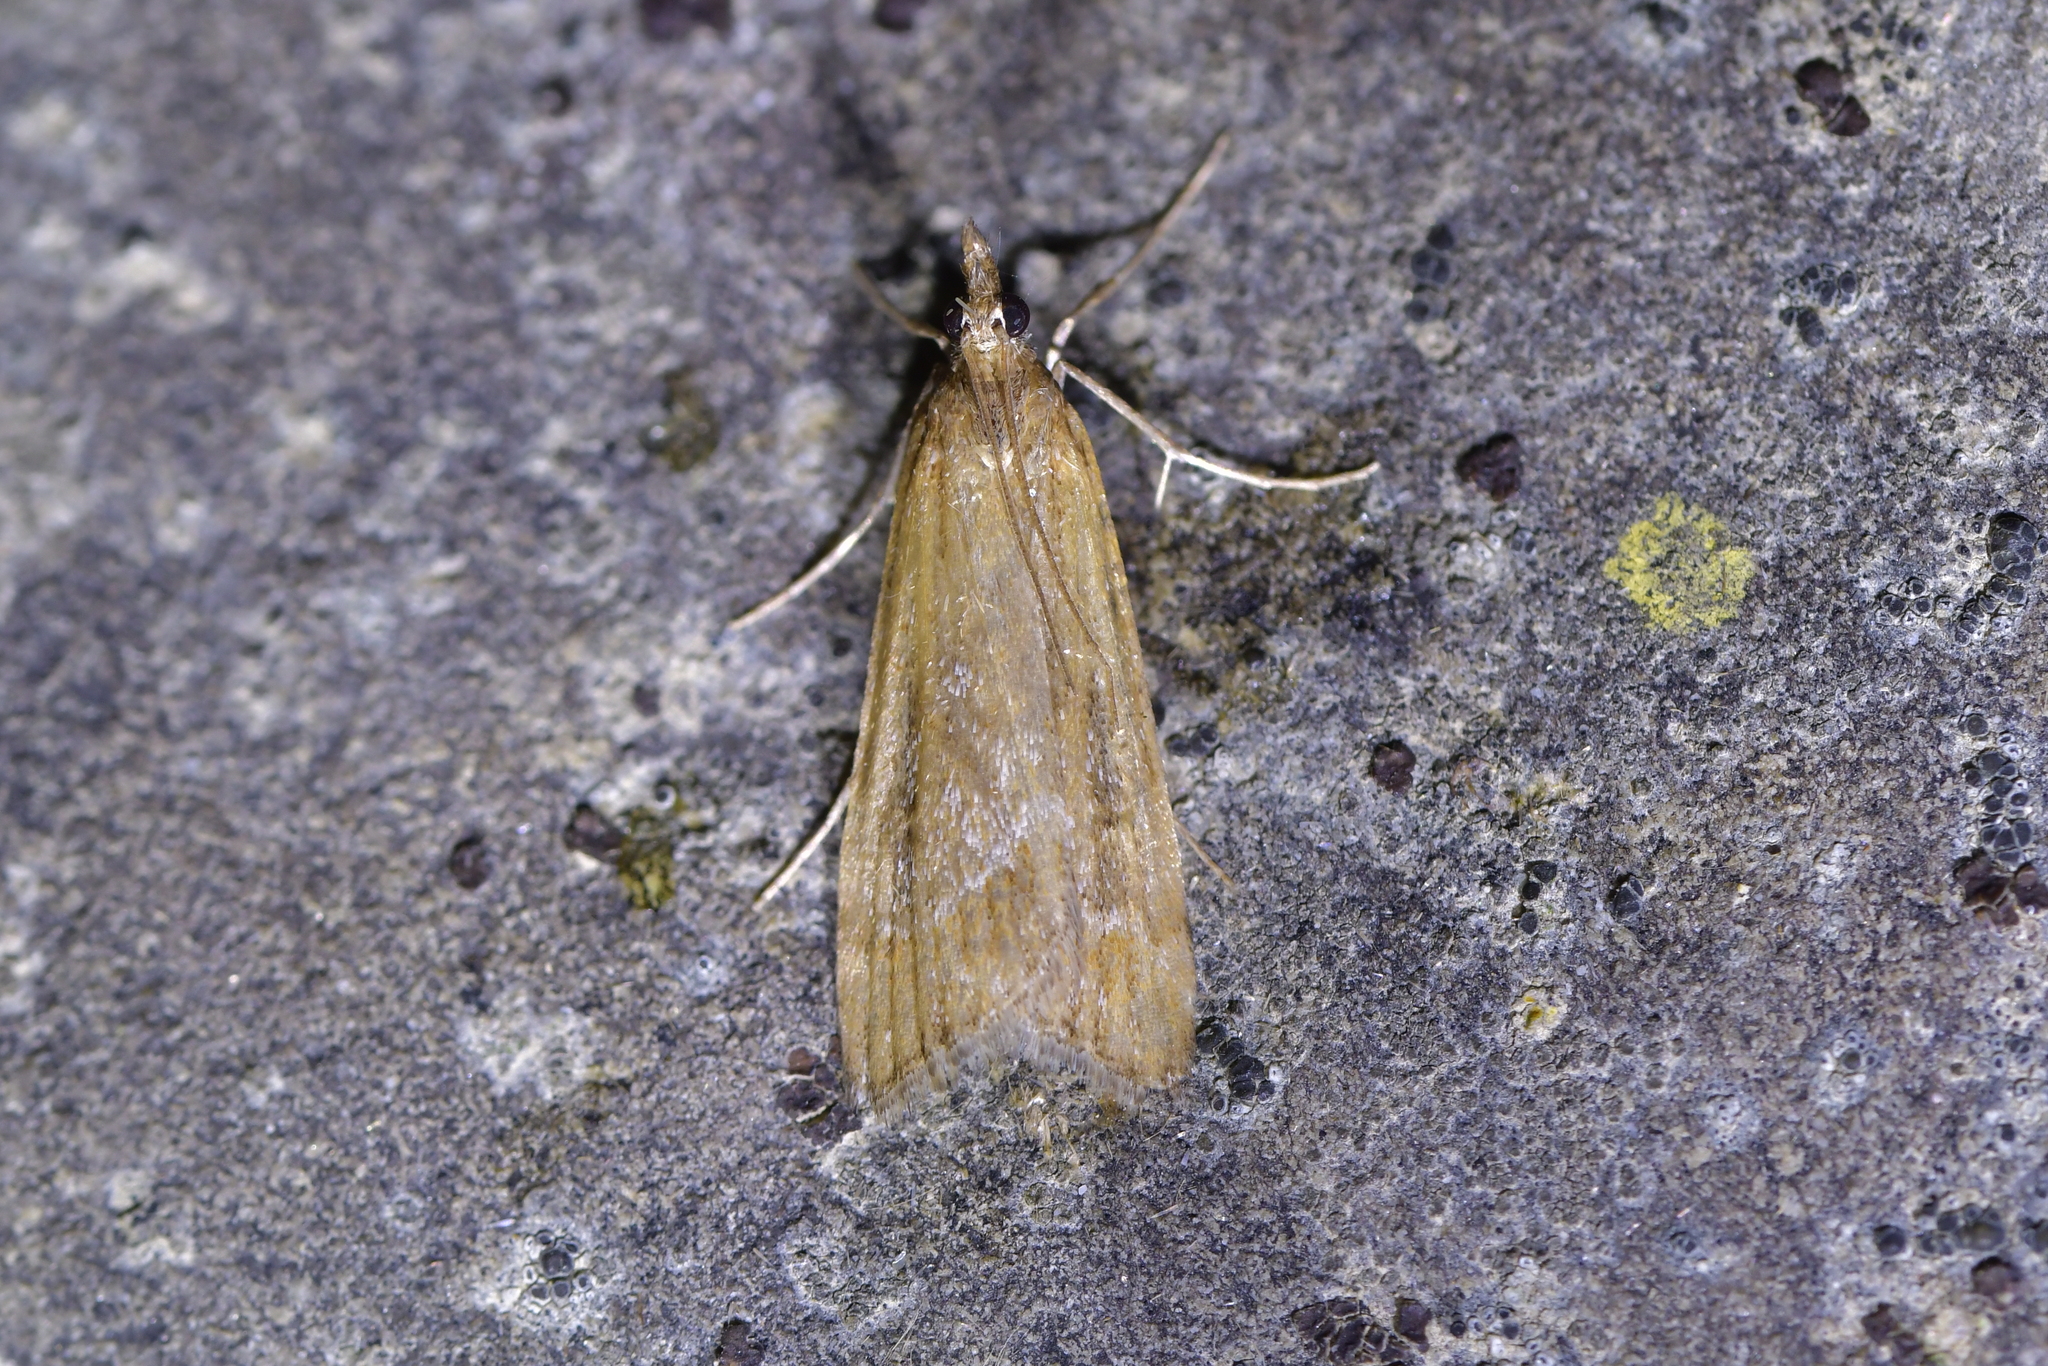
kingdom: Animalia
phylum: Arthropoda
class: Insecta
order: Lepidoptera
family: Crambidae
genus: Eudonia
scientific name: Eudonia chalara
